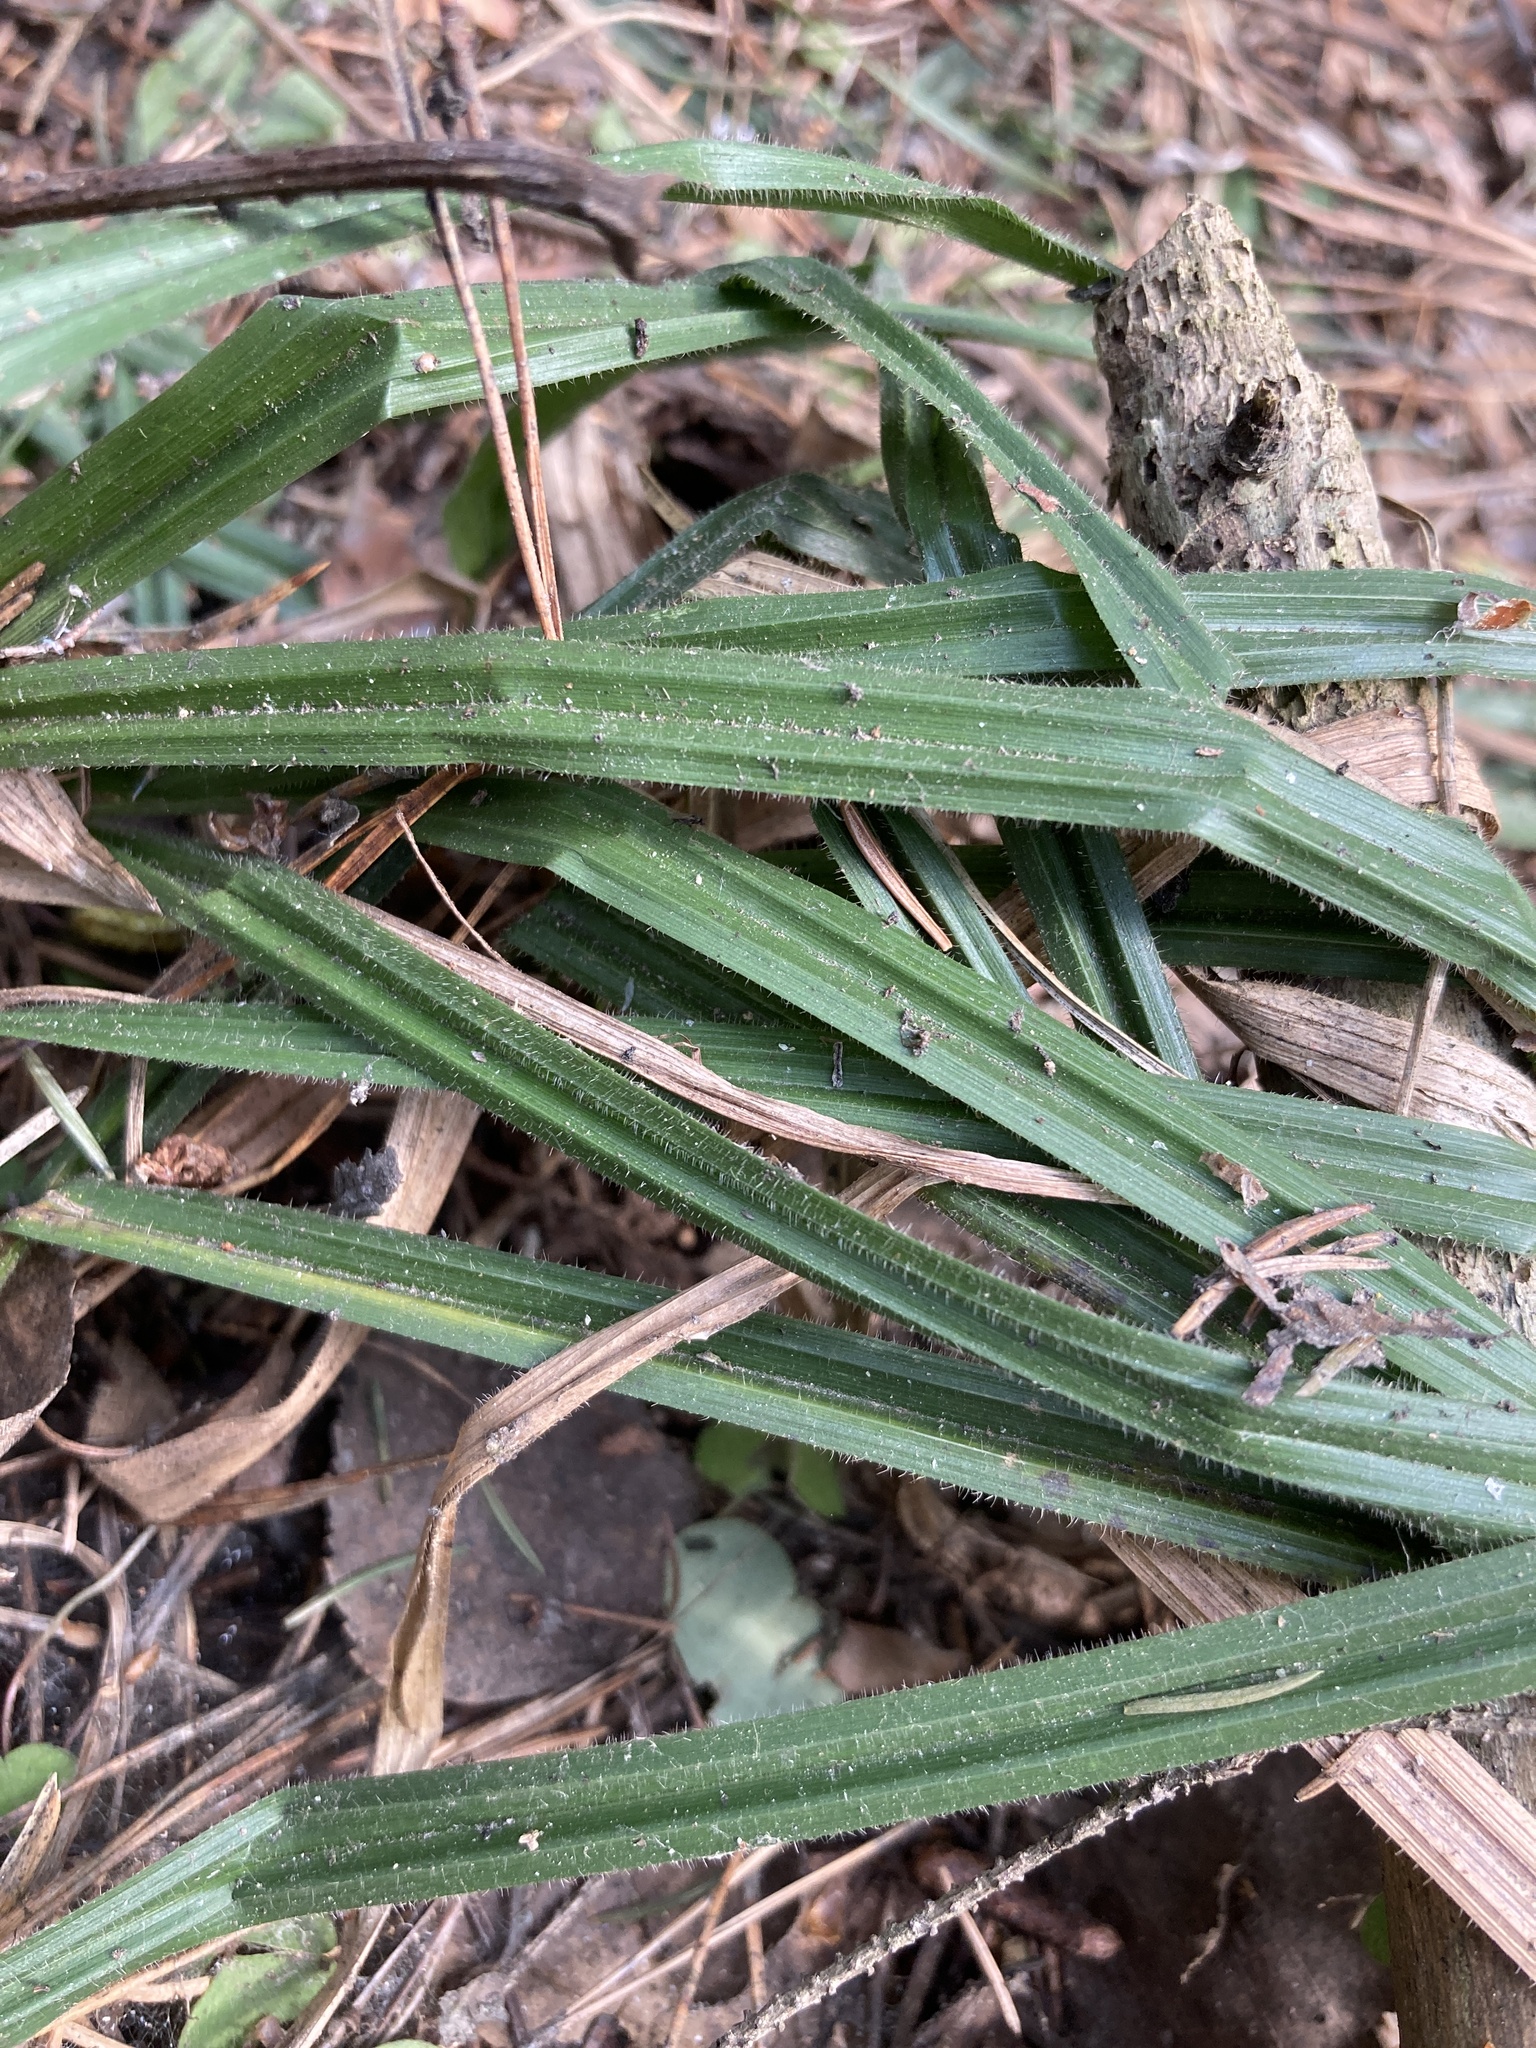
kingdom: Plantae
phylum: Tracheophyta
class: Liliopsida
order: Poales
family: Cyperaceae
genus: Carex
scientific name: Carex pilosa
